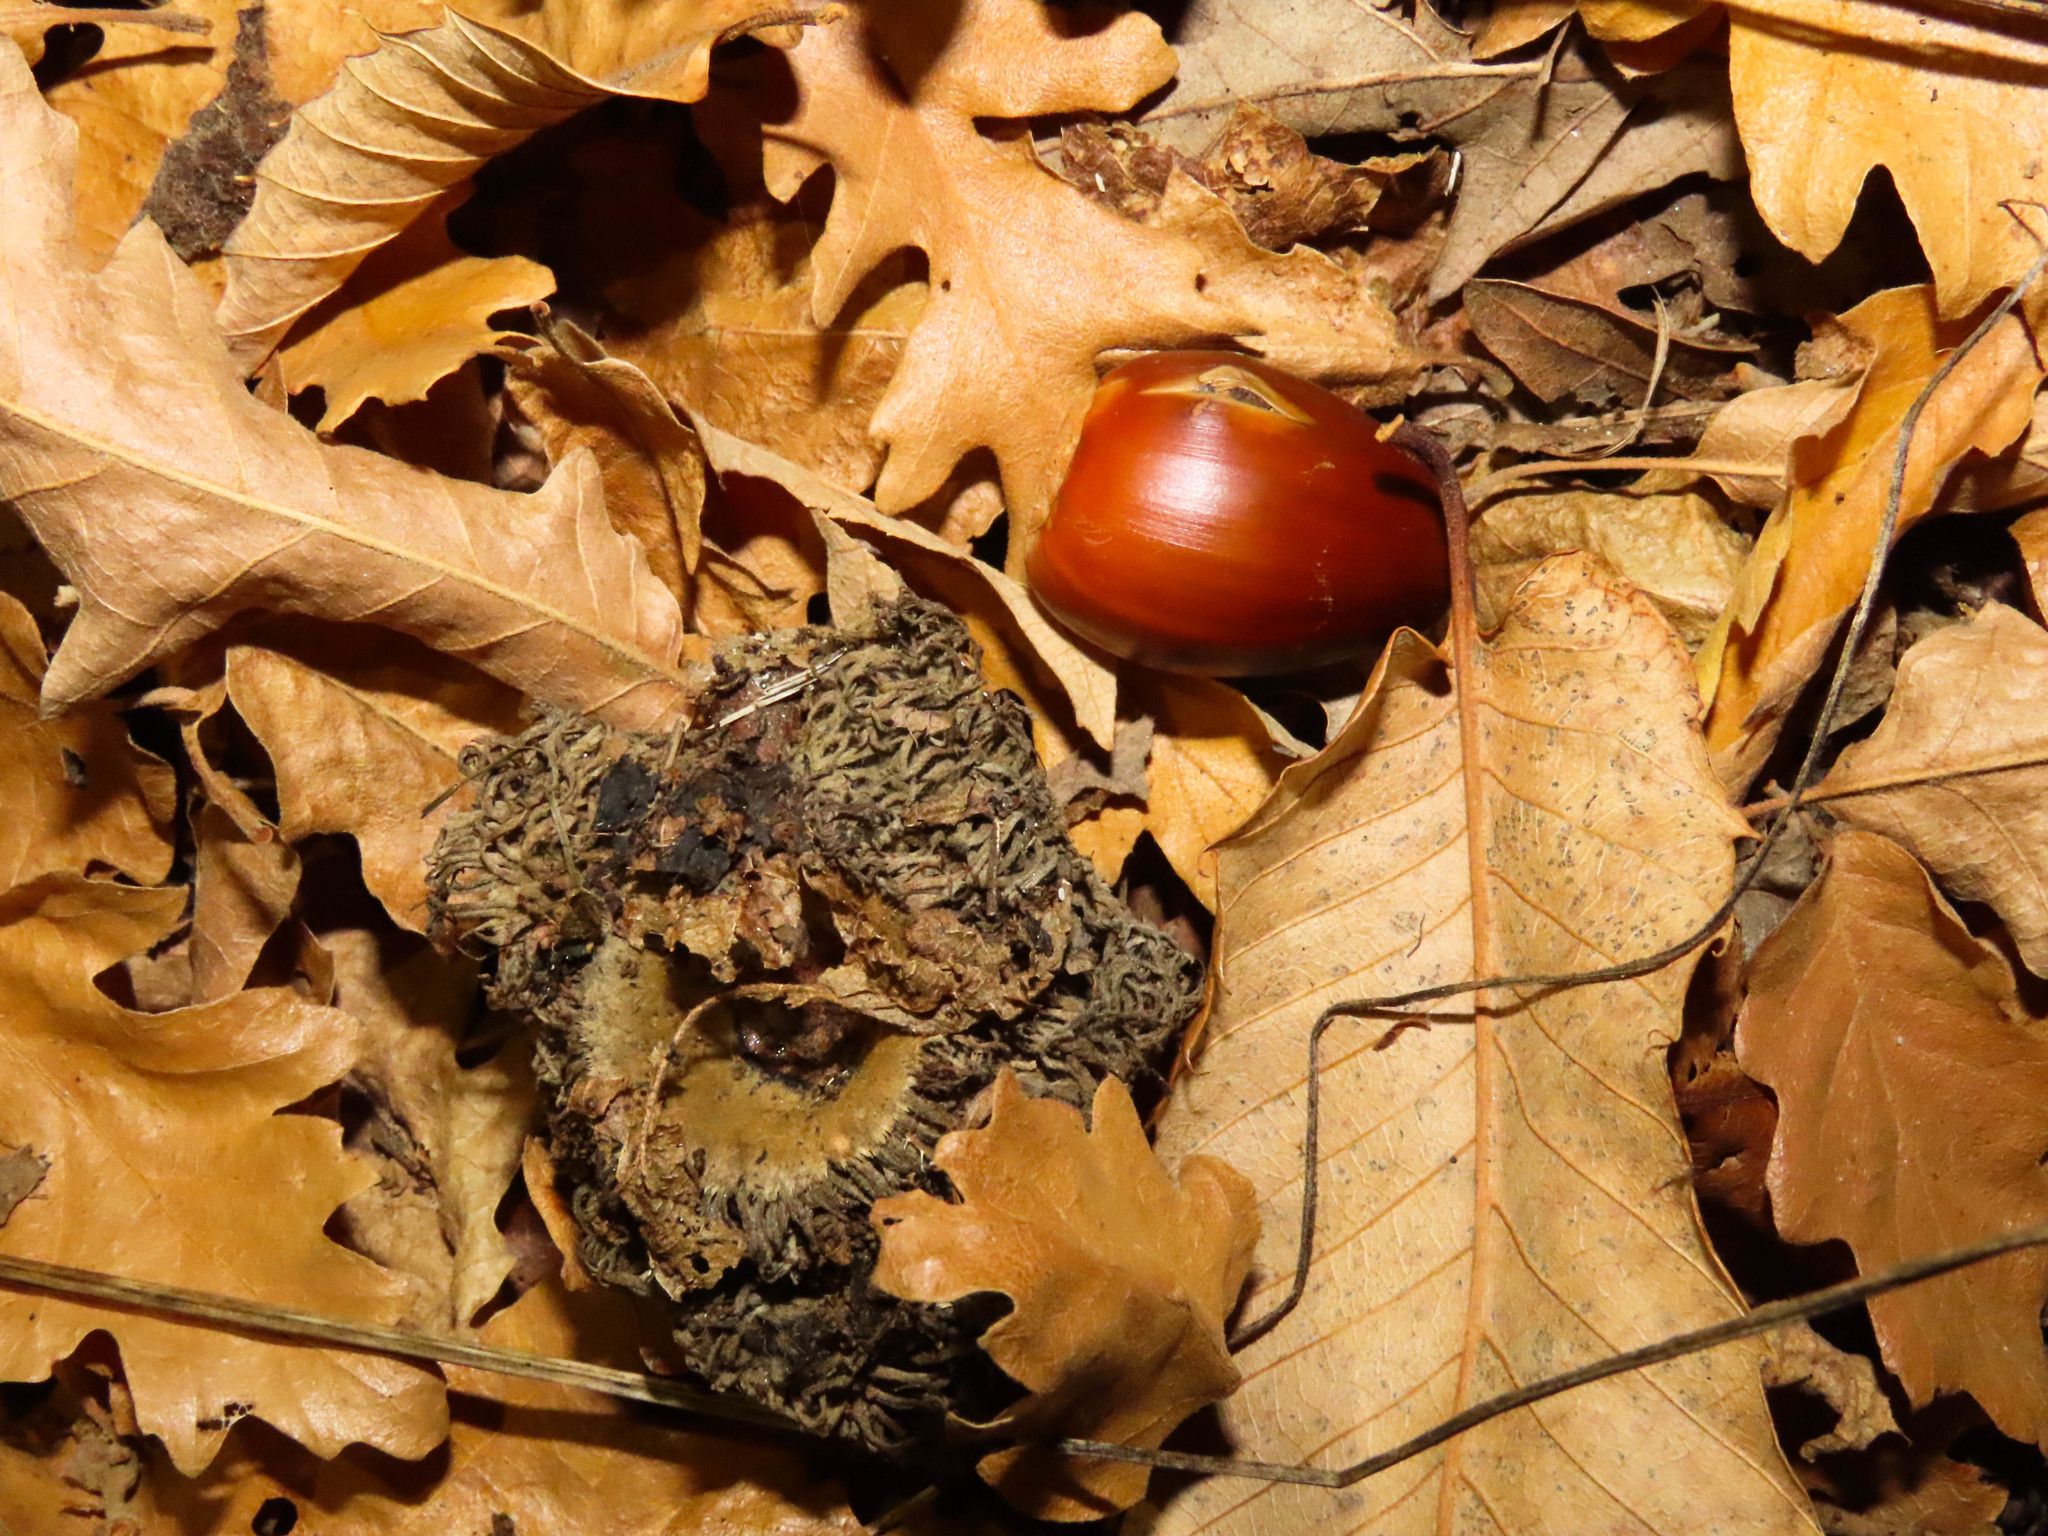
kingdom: Plantae
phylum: Tracheophyta
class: Magnoliopsida
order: Fagales
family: Fagaceae
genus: Quercus
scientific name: Quercus cerris
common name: Turkey oak
